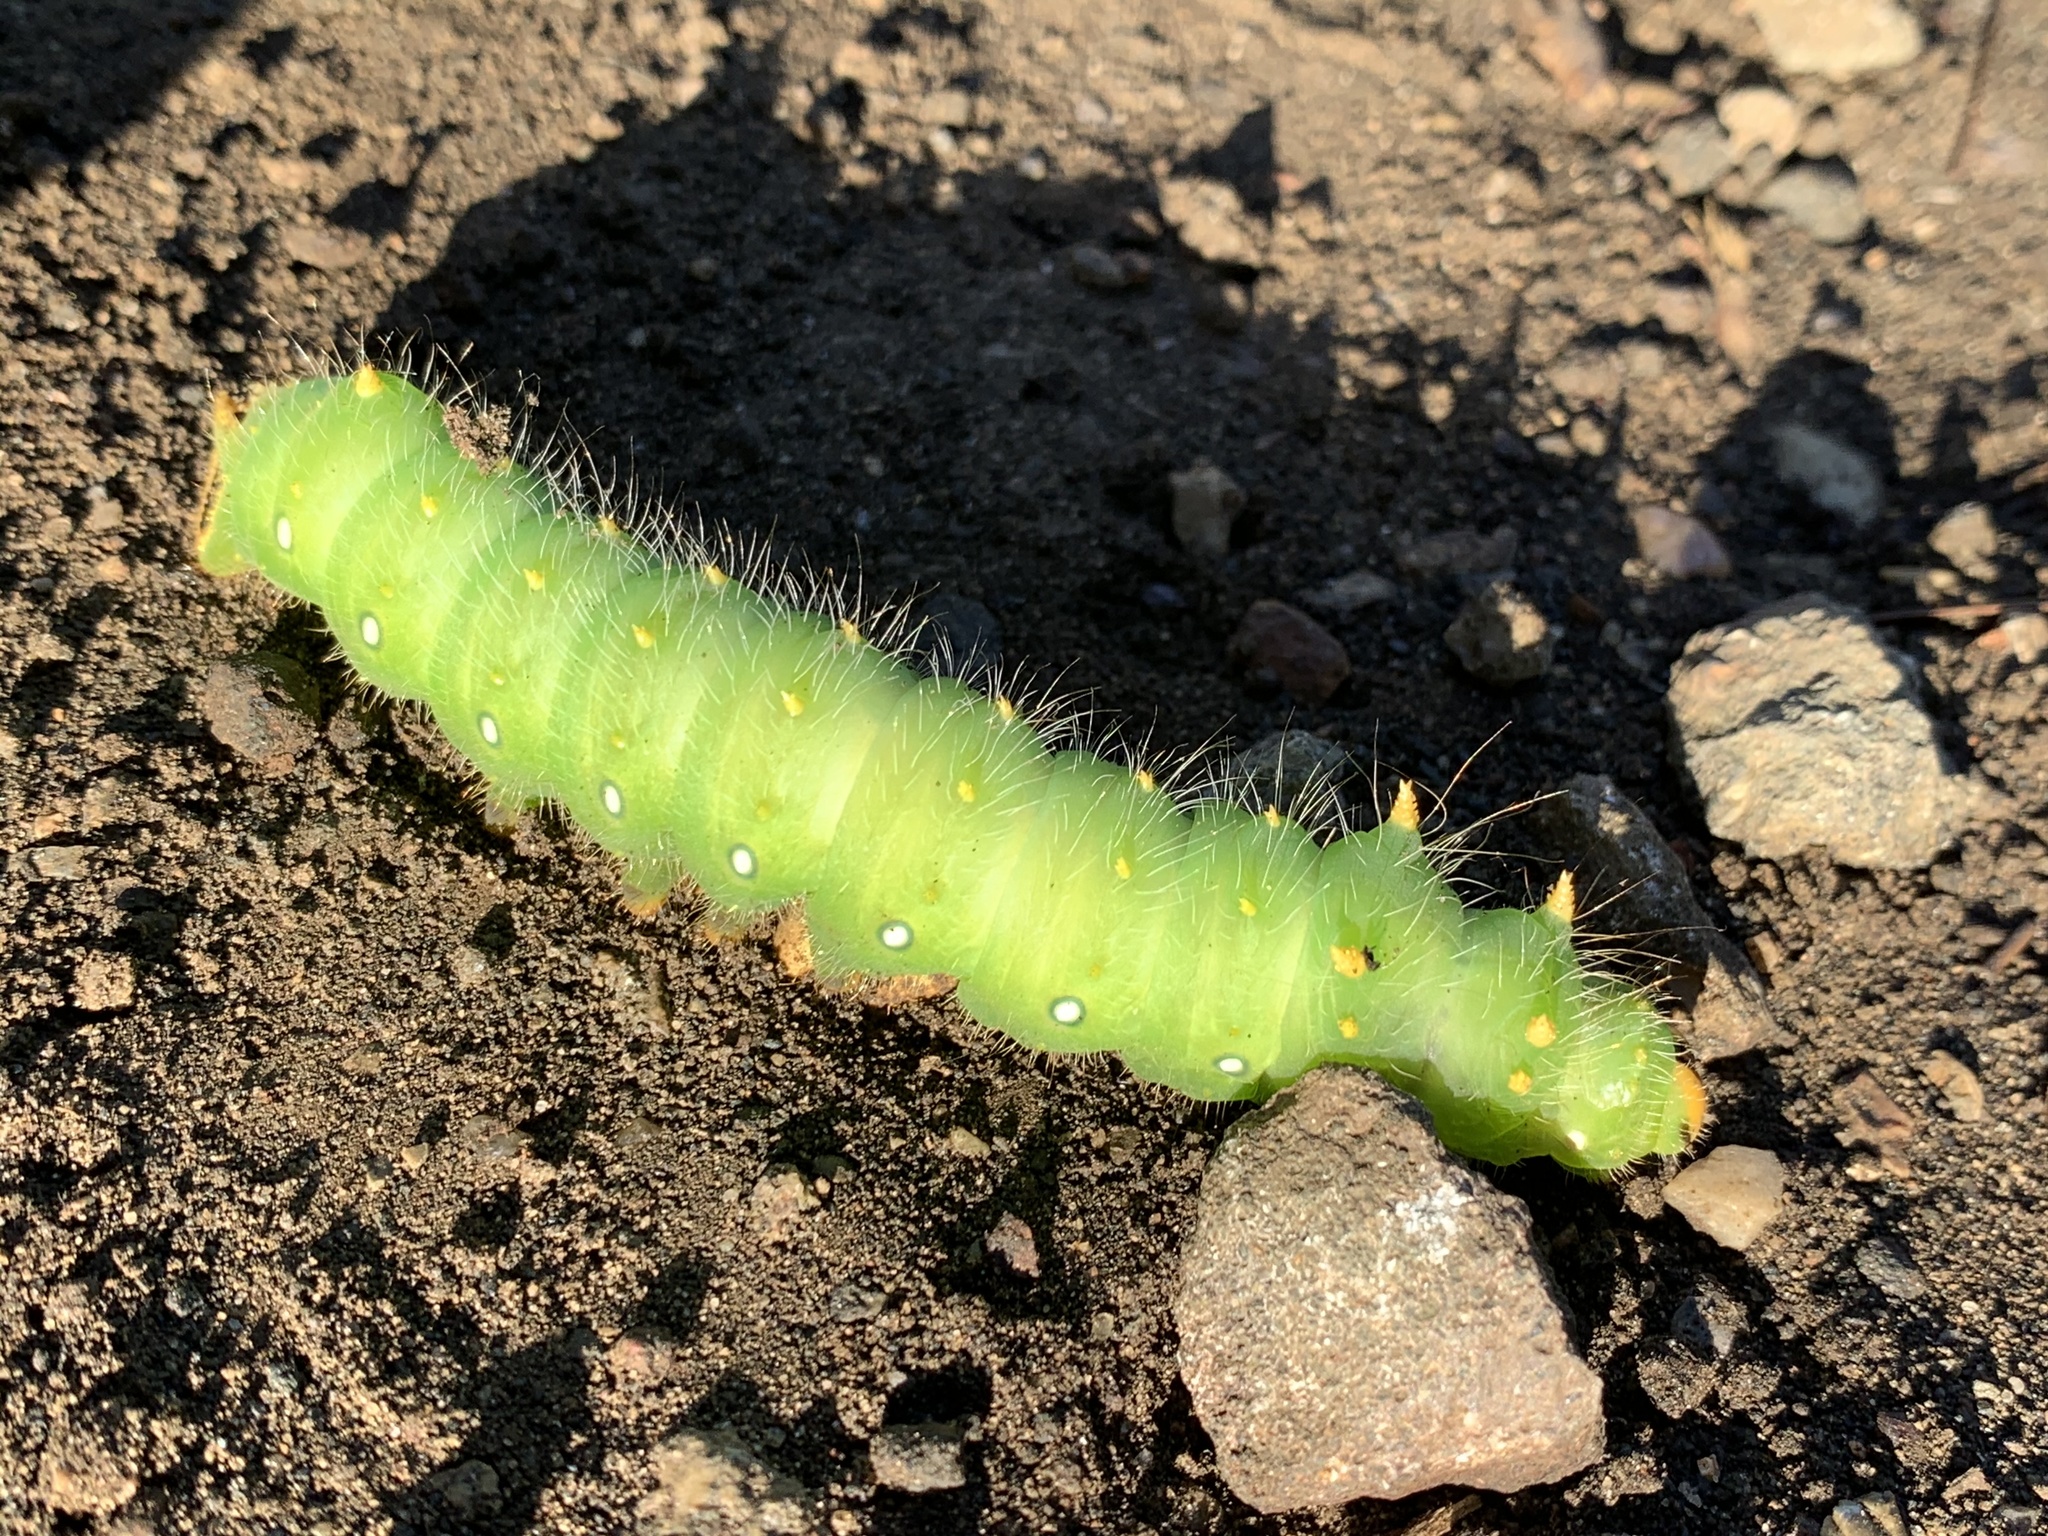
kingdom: Animalia
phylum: Arthropoda
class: Insecta
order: Lepidoptera
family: Saturniidae
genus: Eacles
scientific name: Eacles imperialis
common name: Imperial moth
